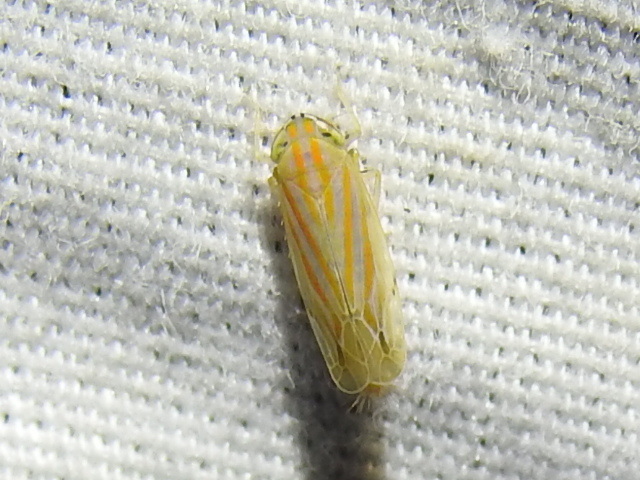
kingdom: Animalia
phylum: Arthropoda
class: Insecta
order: Hemiptera
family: Cicadellidae
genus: Deltanus
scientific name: Deltanus texanus
